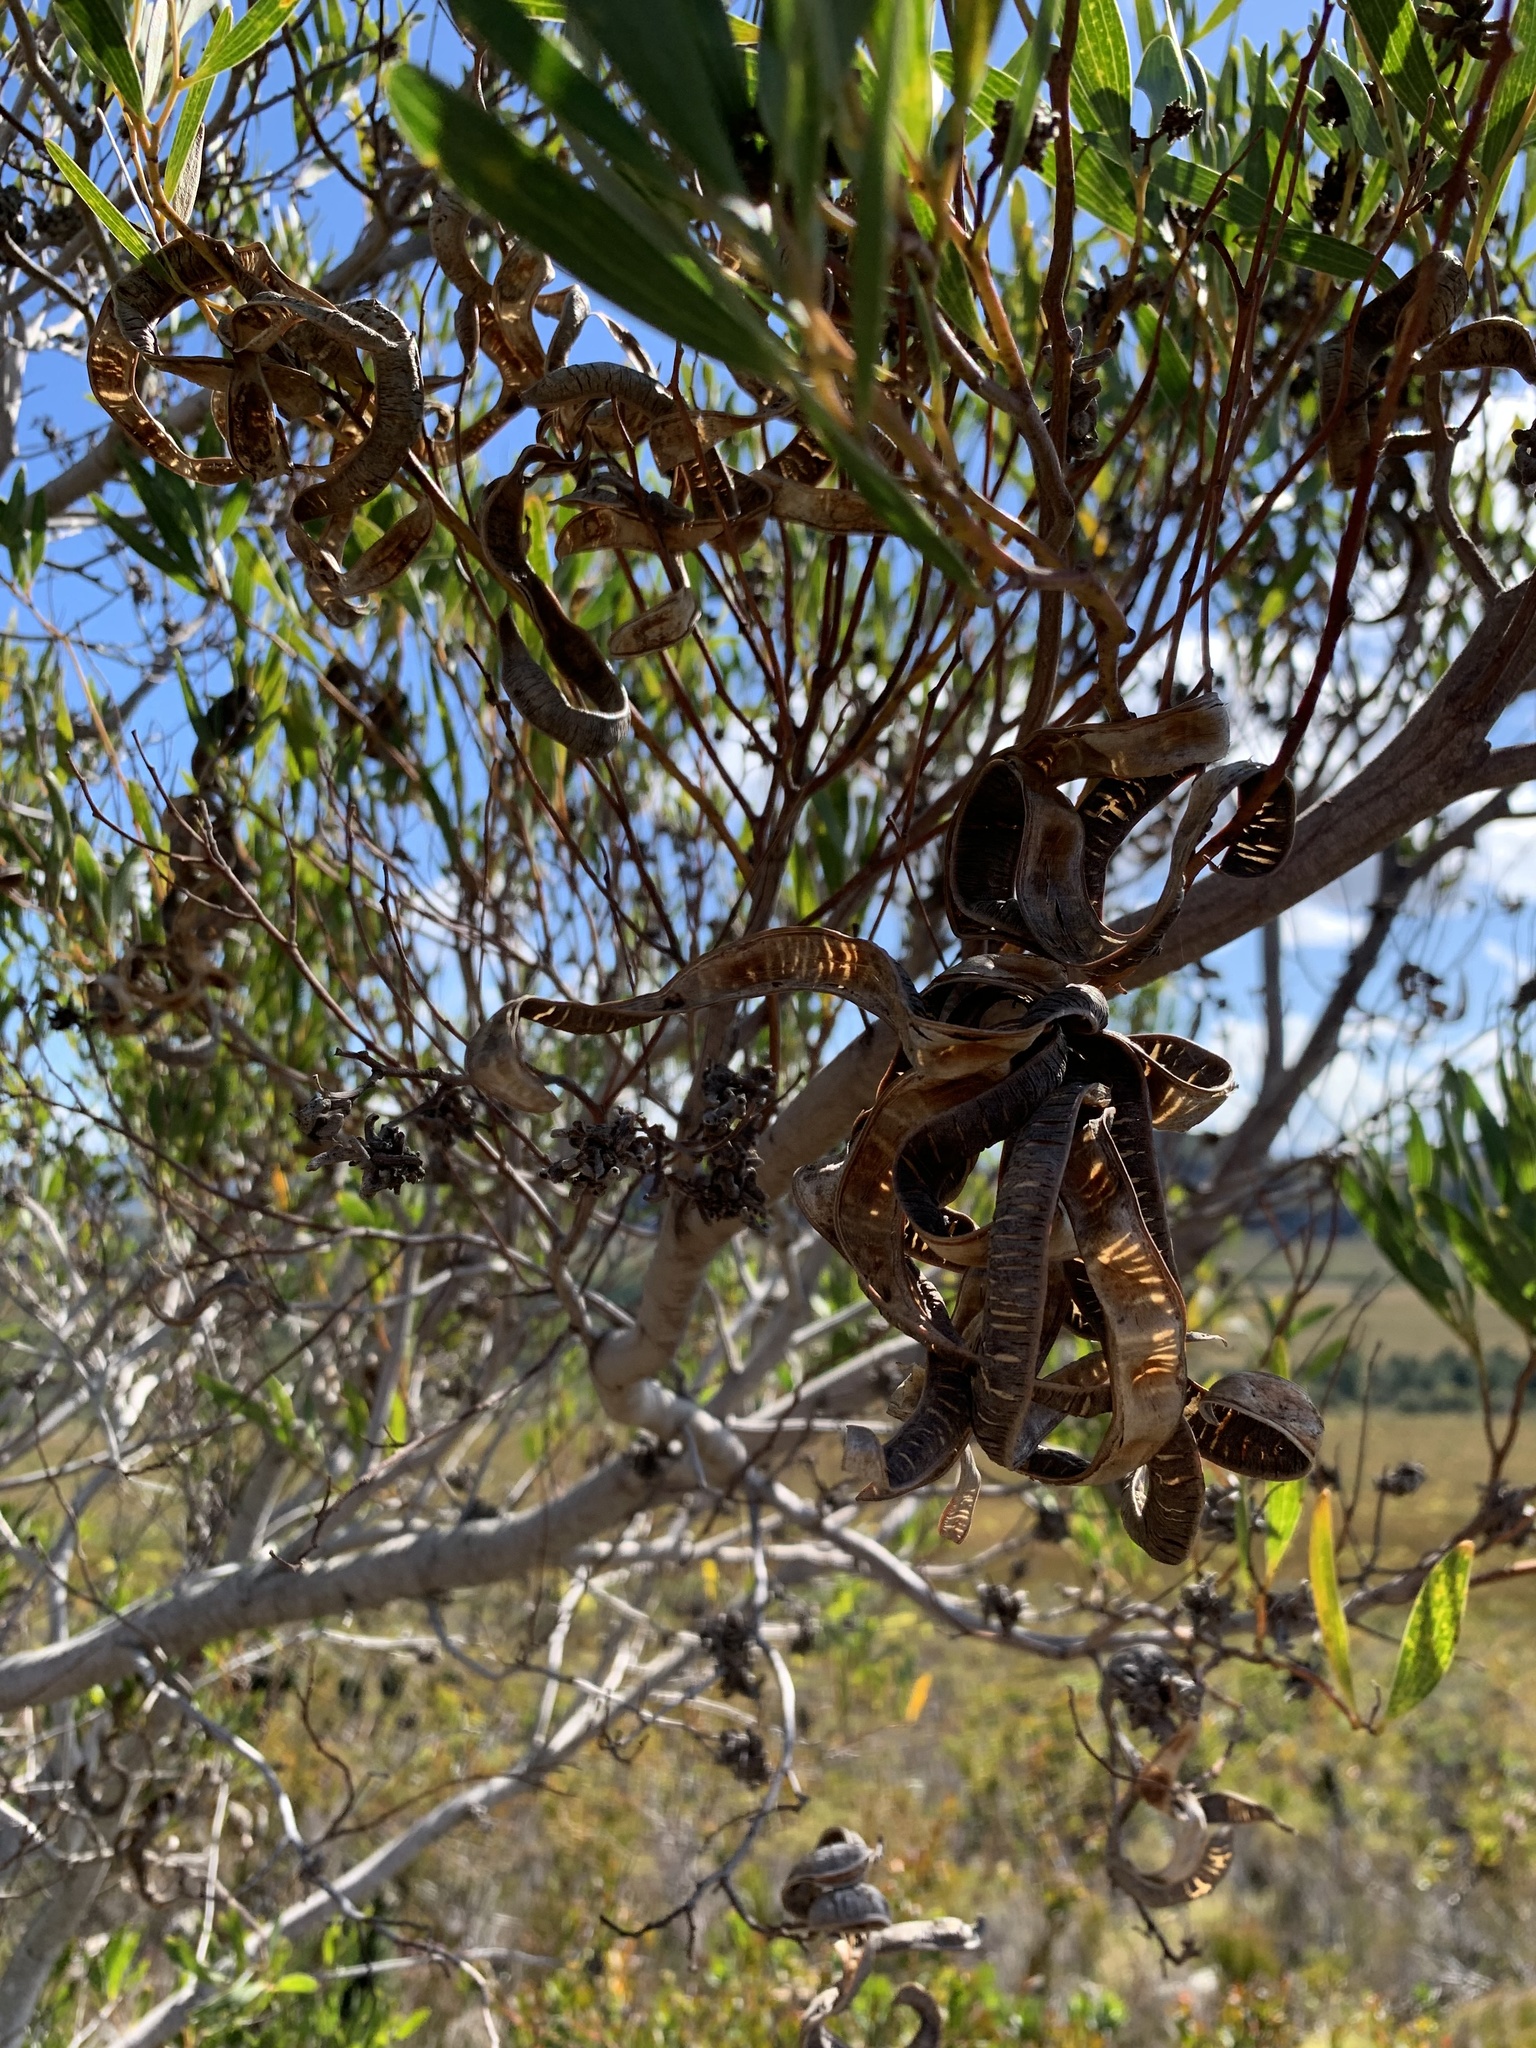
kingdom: Plantae
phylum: Tracheophyta
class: Magnoliopsida
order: Fabales
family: Fabaceae
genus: Acacia
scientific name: Acacia cyclops
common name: Coastal wattle
